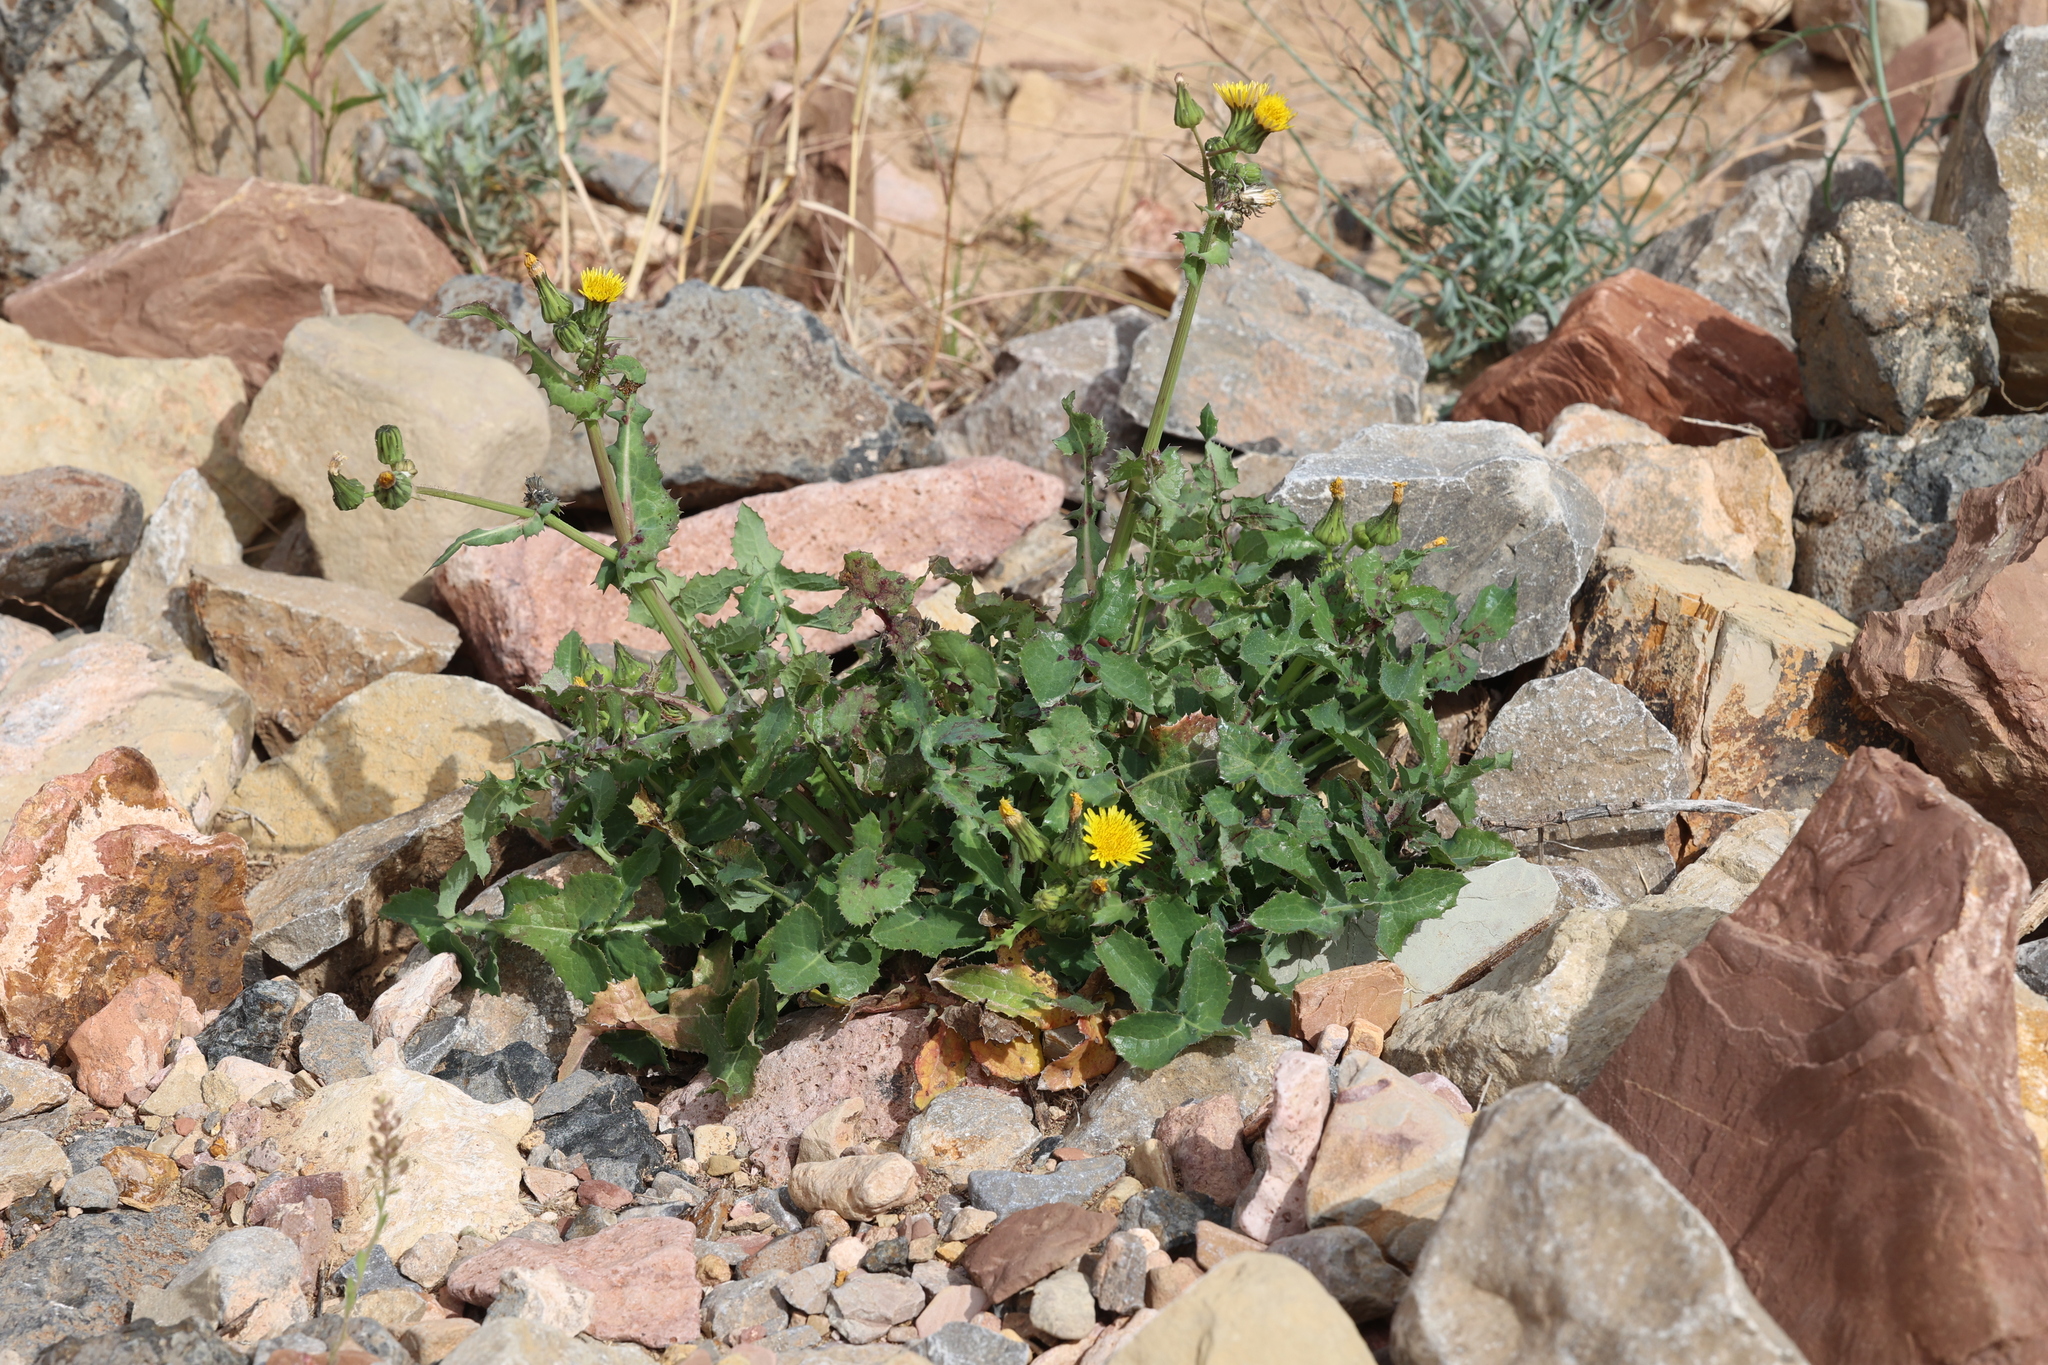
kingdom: Plantae
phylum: Tracheophyta
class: Magnoliopsida
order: Asterales
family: Asteraceae
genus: Sonchus
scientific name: Sonchus oleraceus
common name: Common sowthistle
